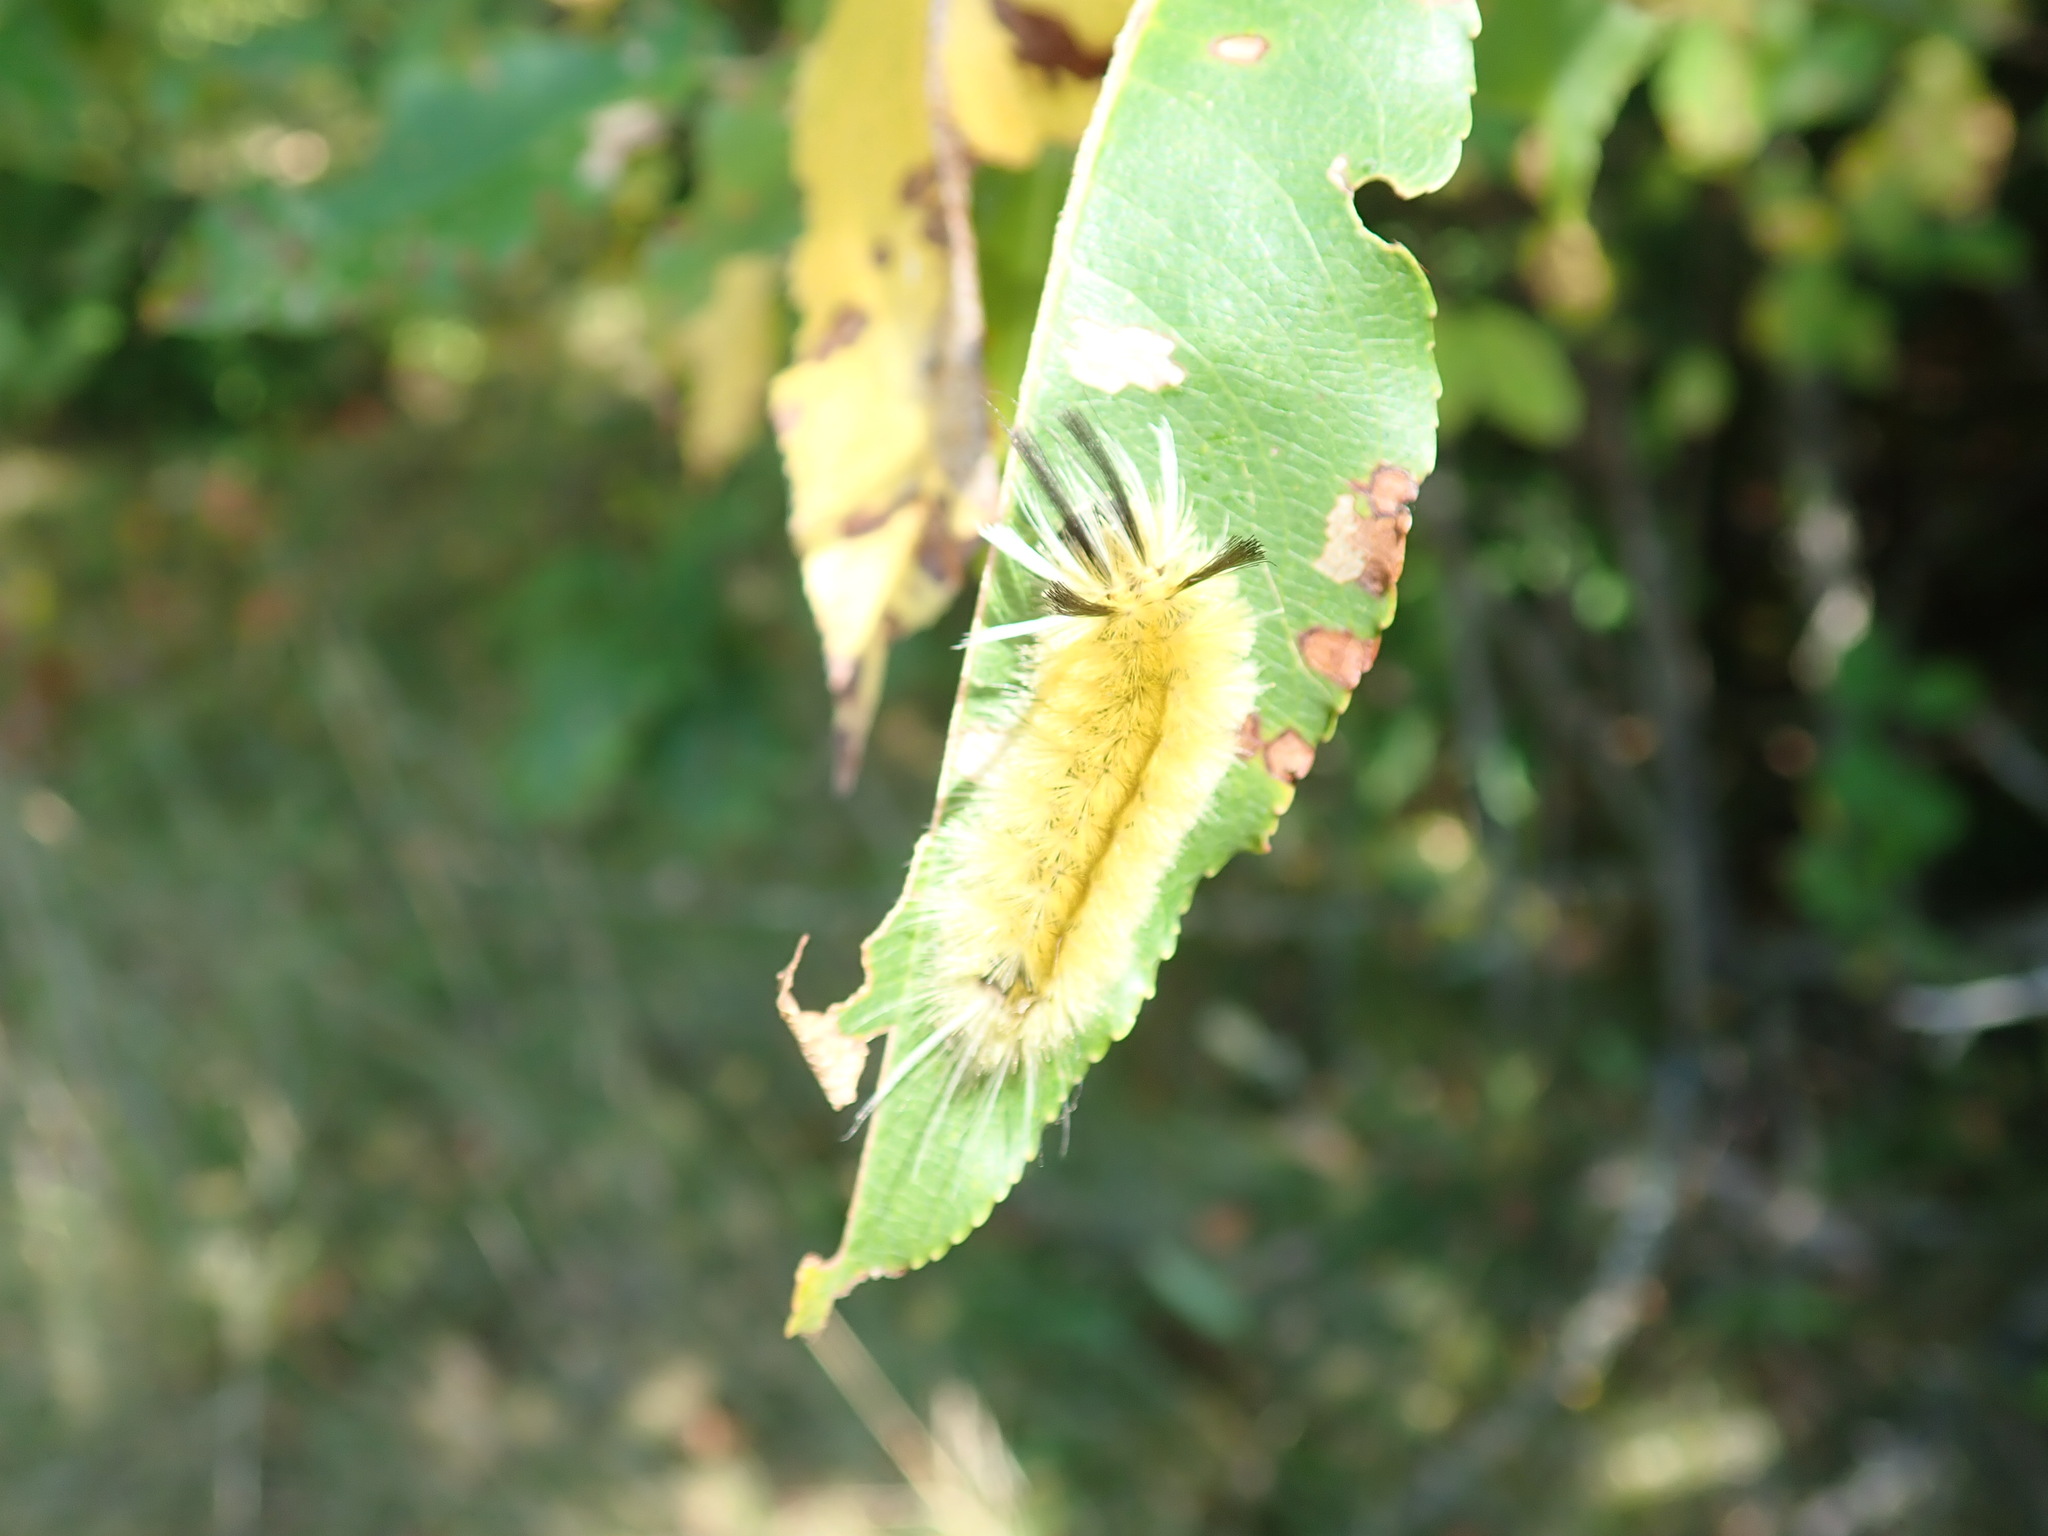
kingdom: Animalia
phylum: Arthropoda
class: Insecta
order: Lepidoptera
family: Erebidae
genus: Halysidota
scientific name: Halysidota tessellaris
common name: Banded tussock moth
